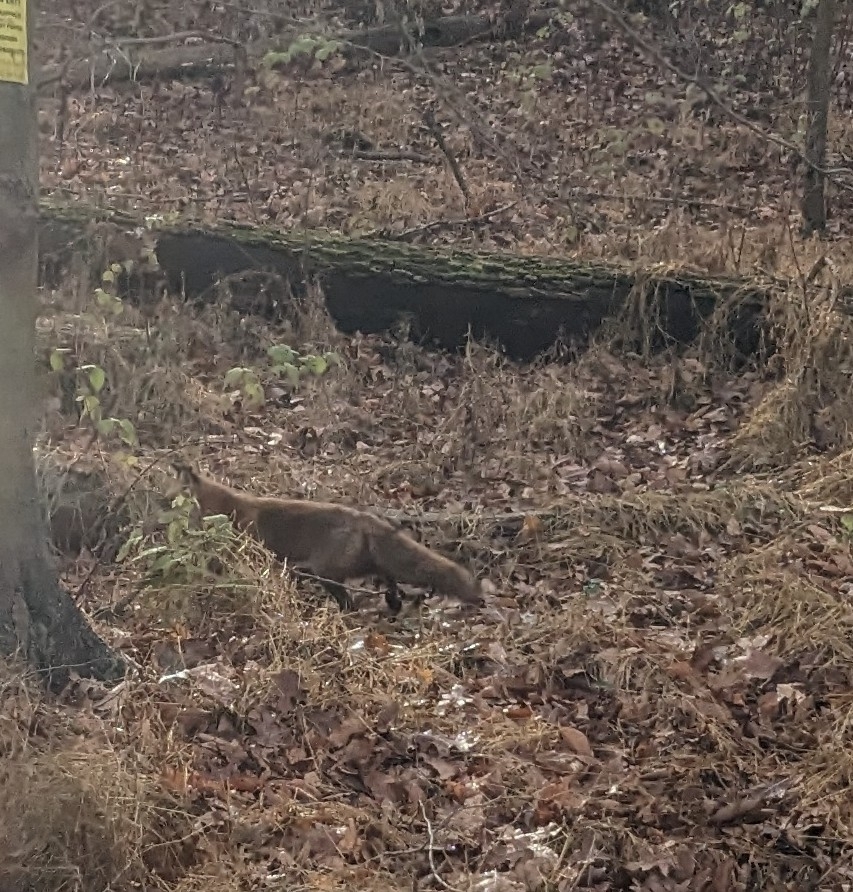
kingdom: Animalia
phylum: Chordata
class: Mammalia
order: Carnivora
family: Canidae
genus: Vulpes
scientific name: Vulpes vulpes
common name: Red fox
